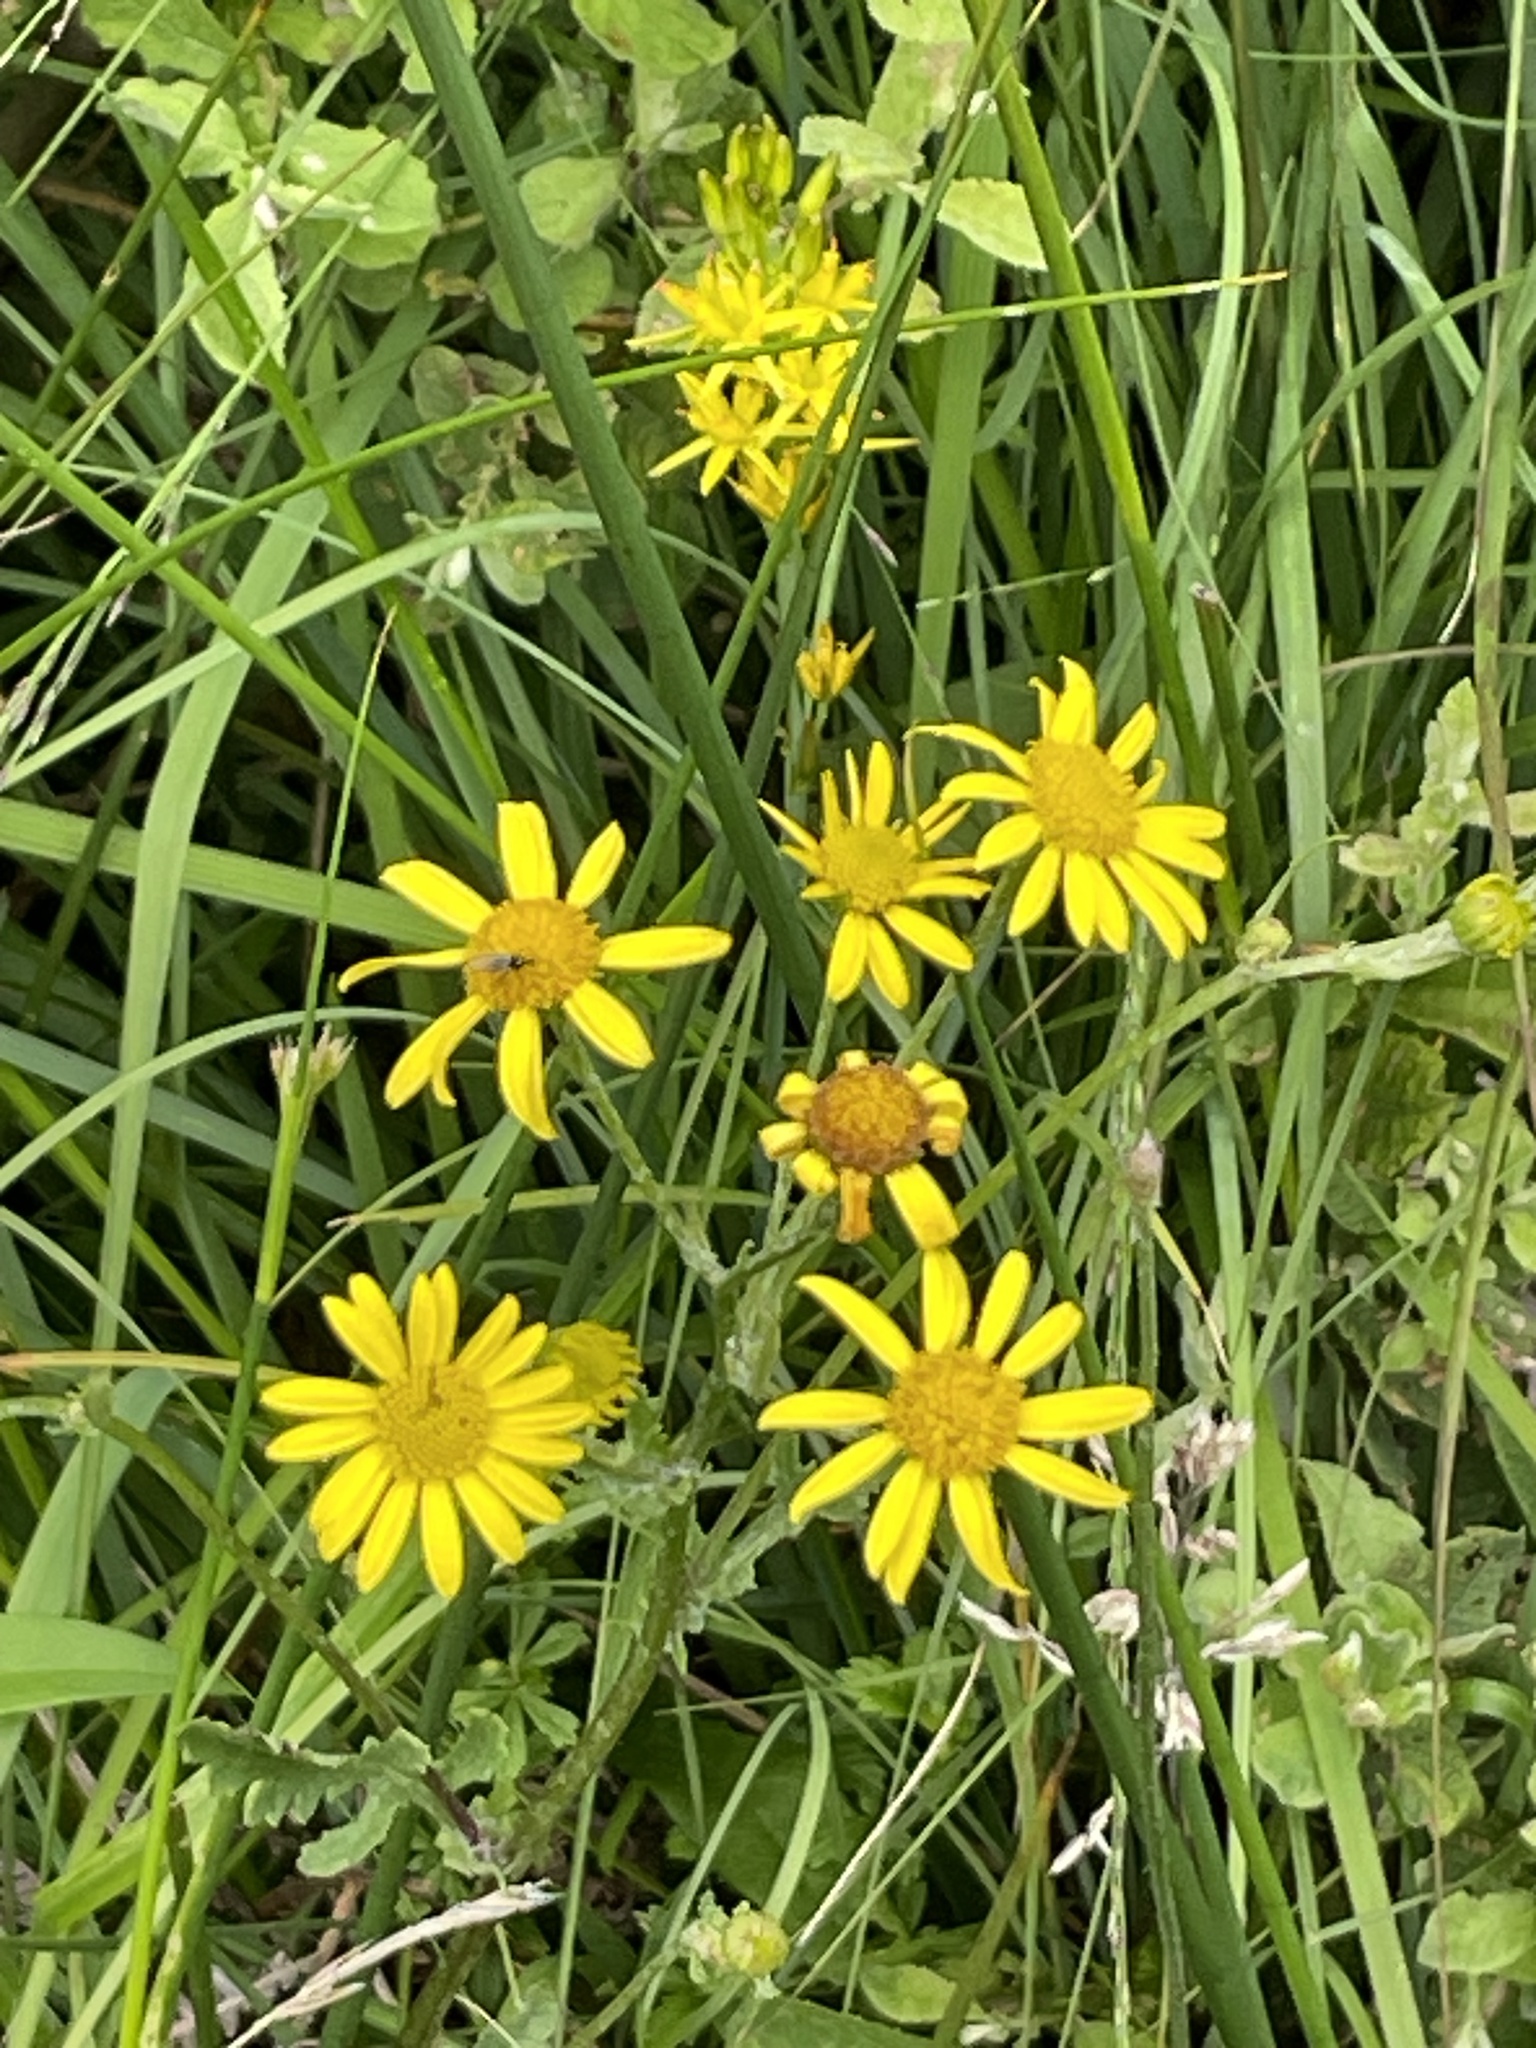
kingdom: Plantae
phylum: Tracheophyta
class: Magnoliopsida
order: Asterales
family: Asteraceae
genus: Jacobaea
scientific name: Jacobaea aquatica
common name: Water ragwort
